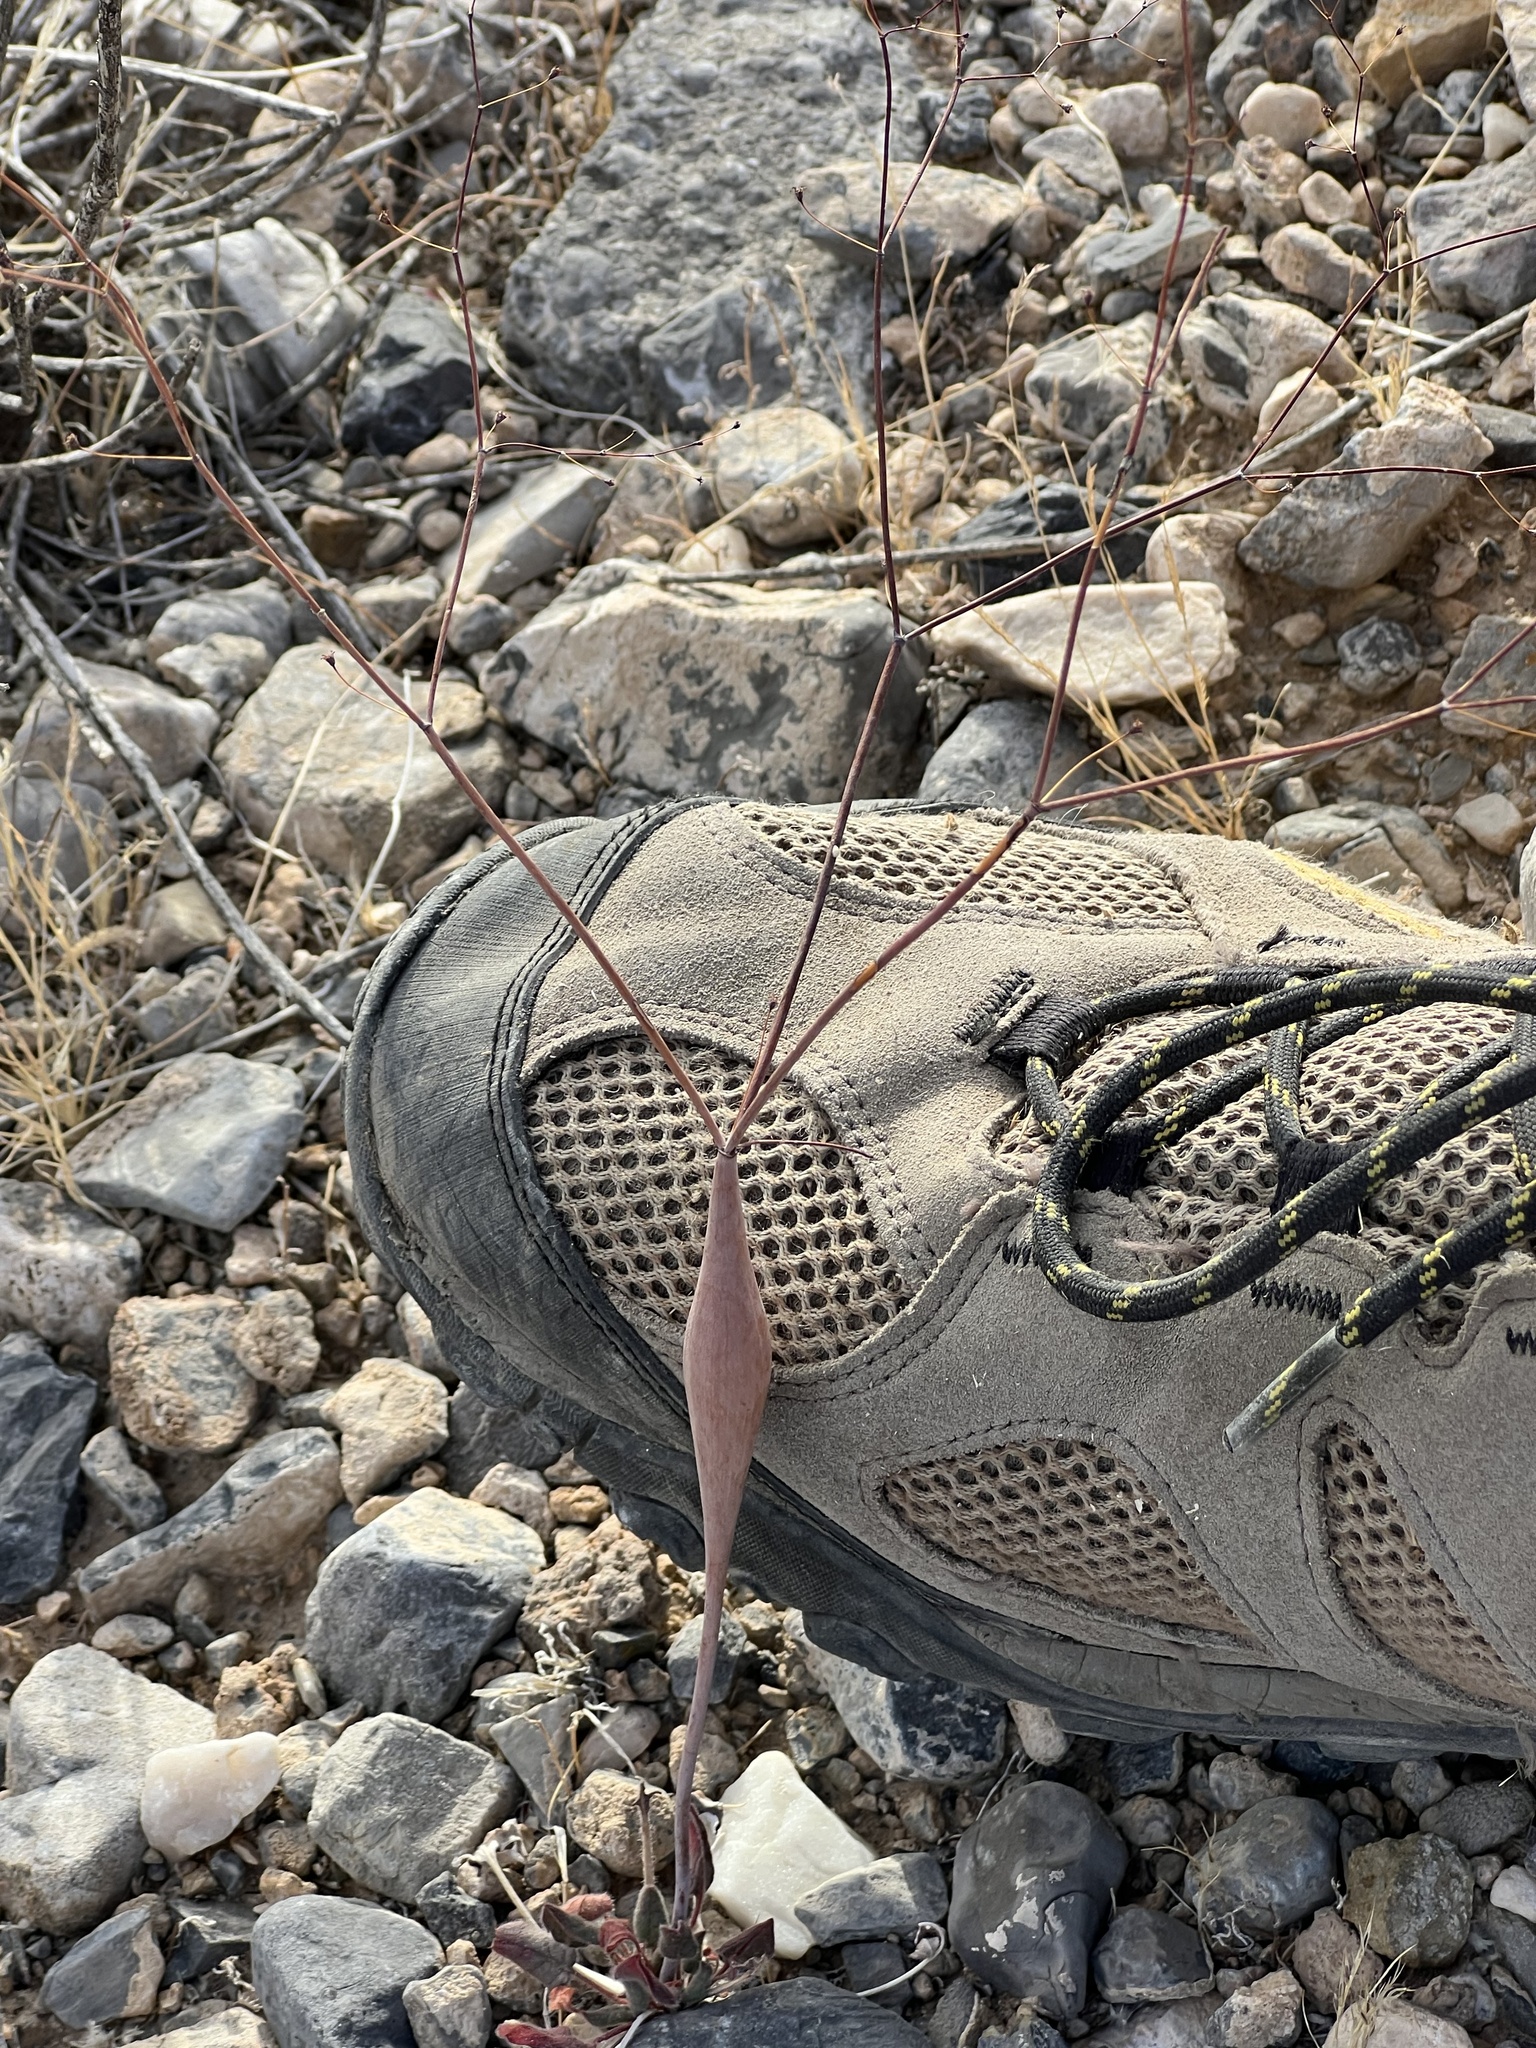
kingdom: Plantae
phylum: Tracheophyta
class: Magnoliopsida
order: Caryophyllales
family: Polygonaceae
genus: Eriogonum
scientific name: Eriogonum inflatum
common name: Desert trumpet
